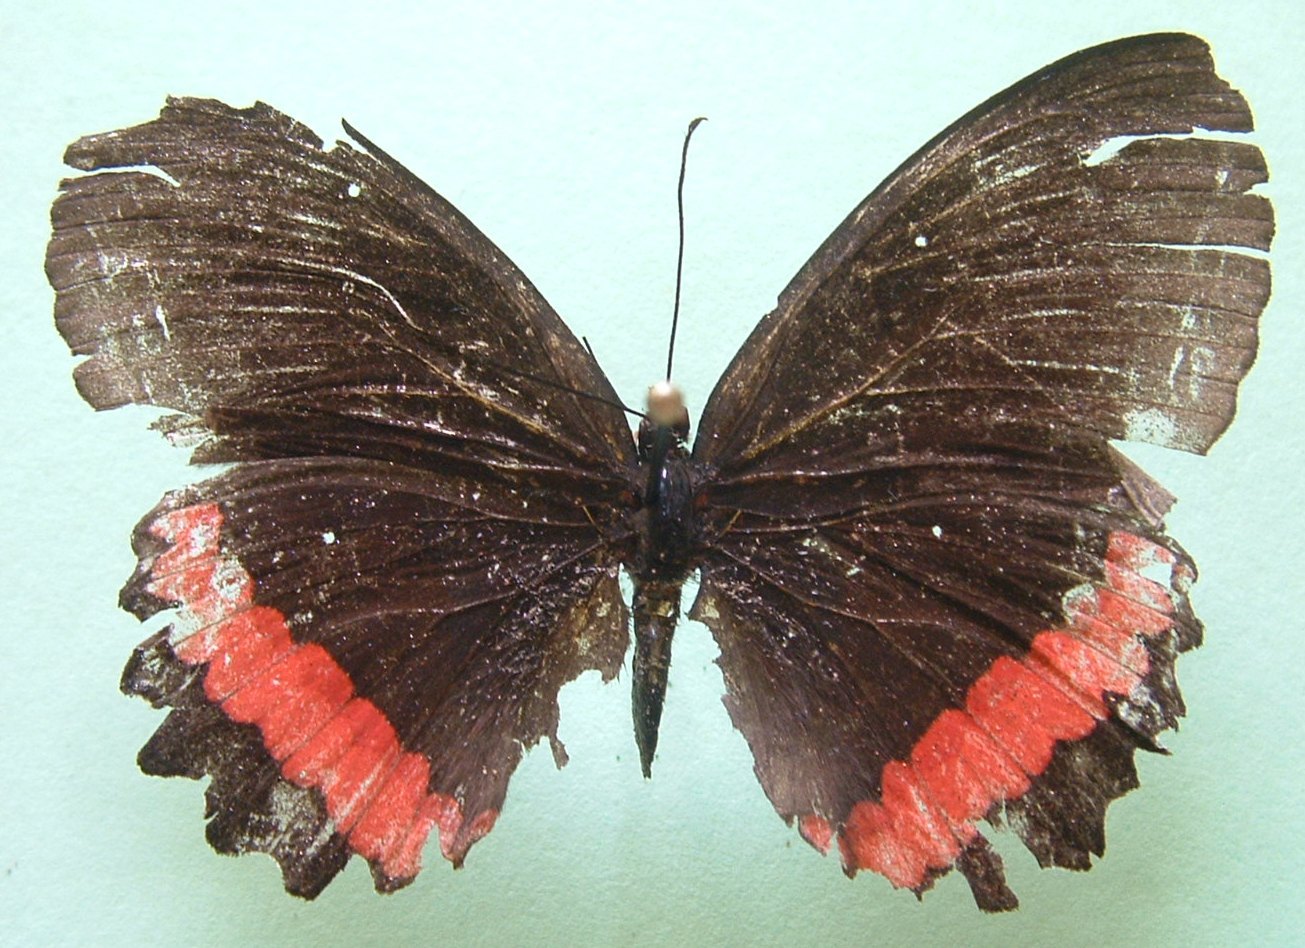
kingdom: Animalia
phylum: Arthropoda
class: Insecta
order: Lepidoptera
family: Nymphalidae
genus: Biblis
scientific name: Biblis aganisa
